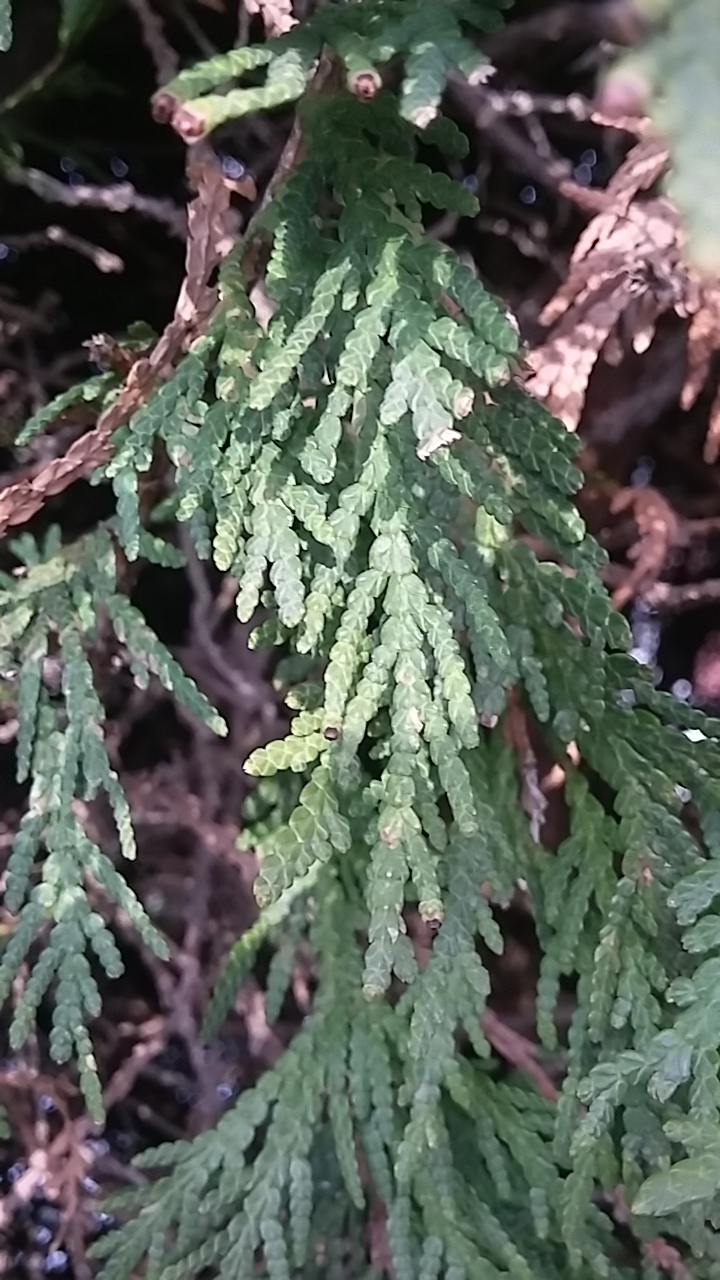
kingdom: Plantae
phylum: Tracheophyta
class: Pinopsida
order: Pinales
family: Cupressaceae
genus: Thuja
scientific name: Thuja occidentalis
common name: Northern white-cedar
